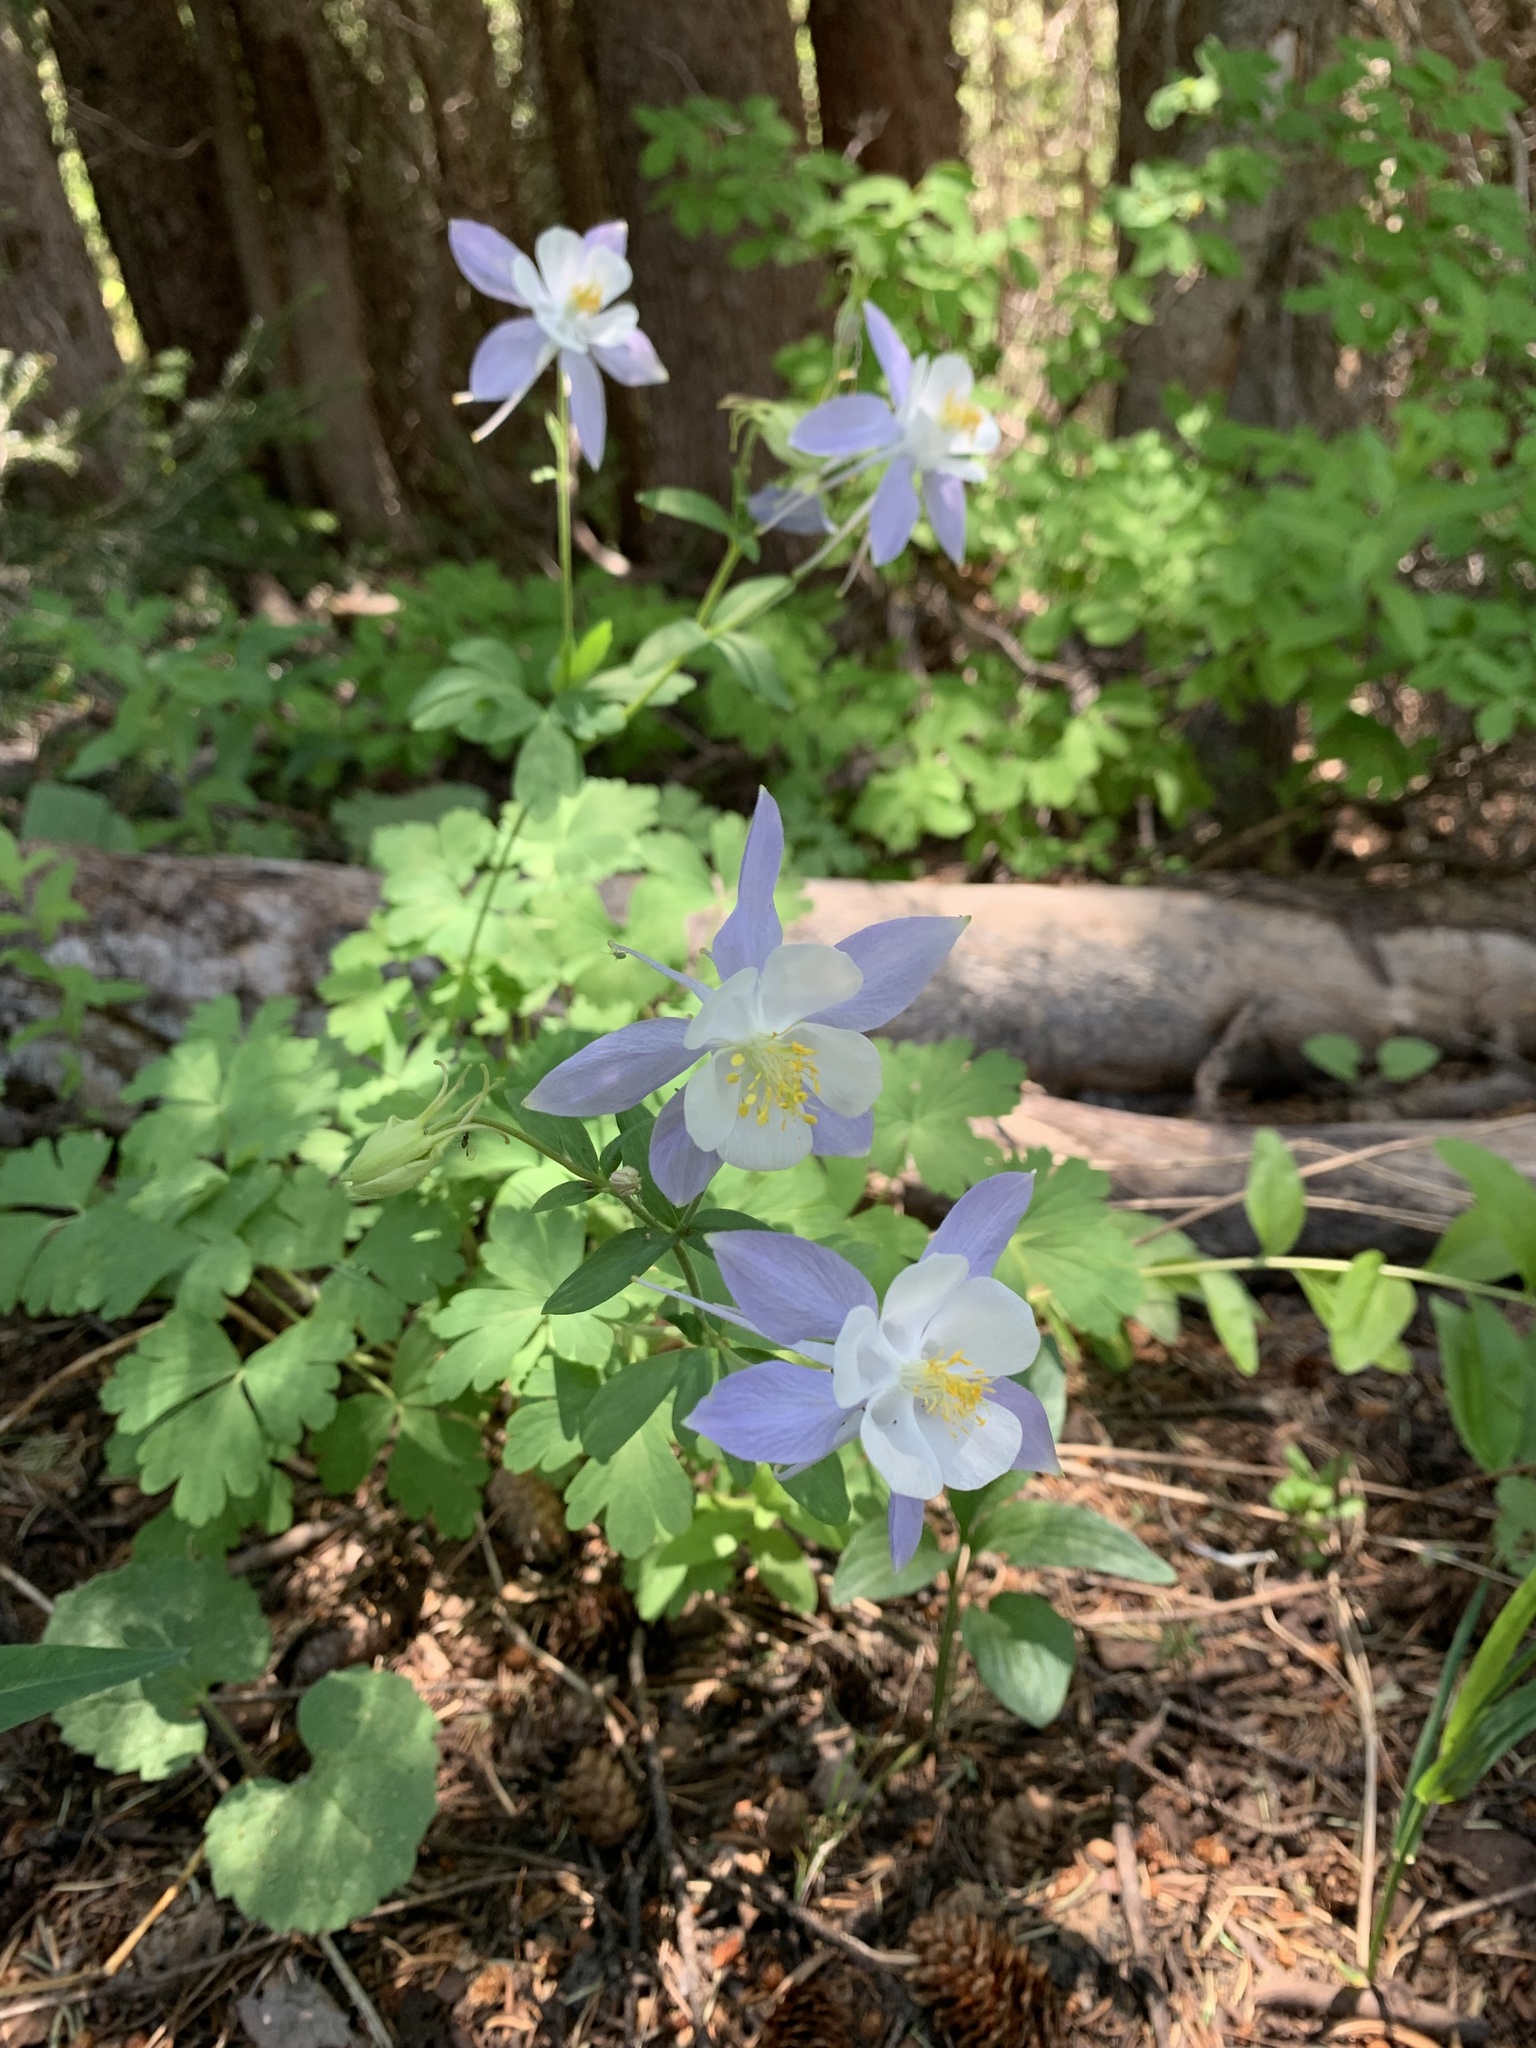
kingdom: Plantae
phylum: Tracheophyta
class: Magnoliopsida
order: Ranunculales
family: Ranunculaceae
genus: Aquilegia
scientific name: Aquilegia coerulea
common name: Rocky mountain columbine
